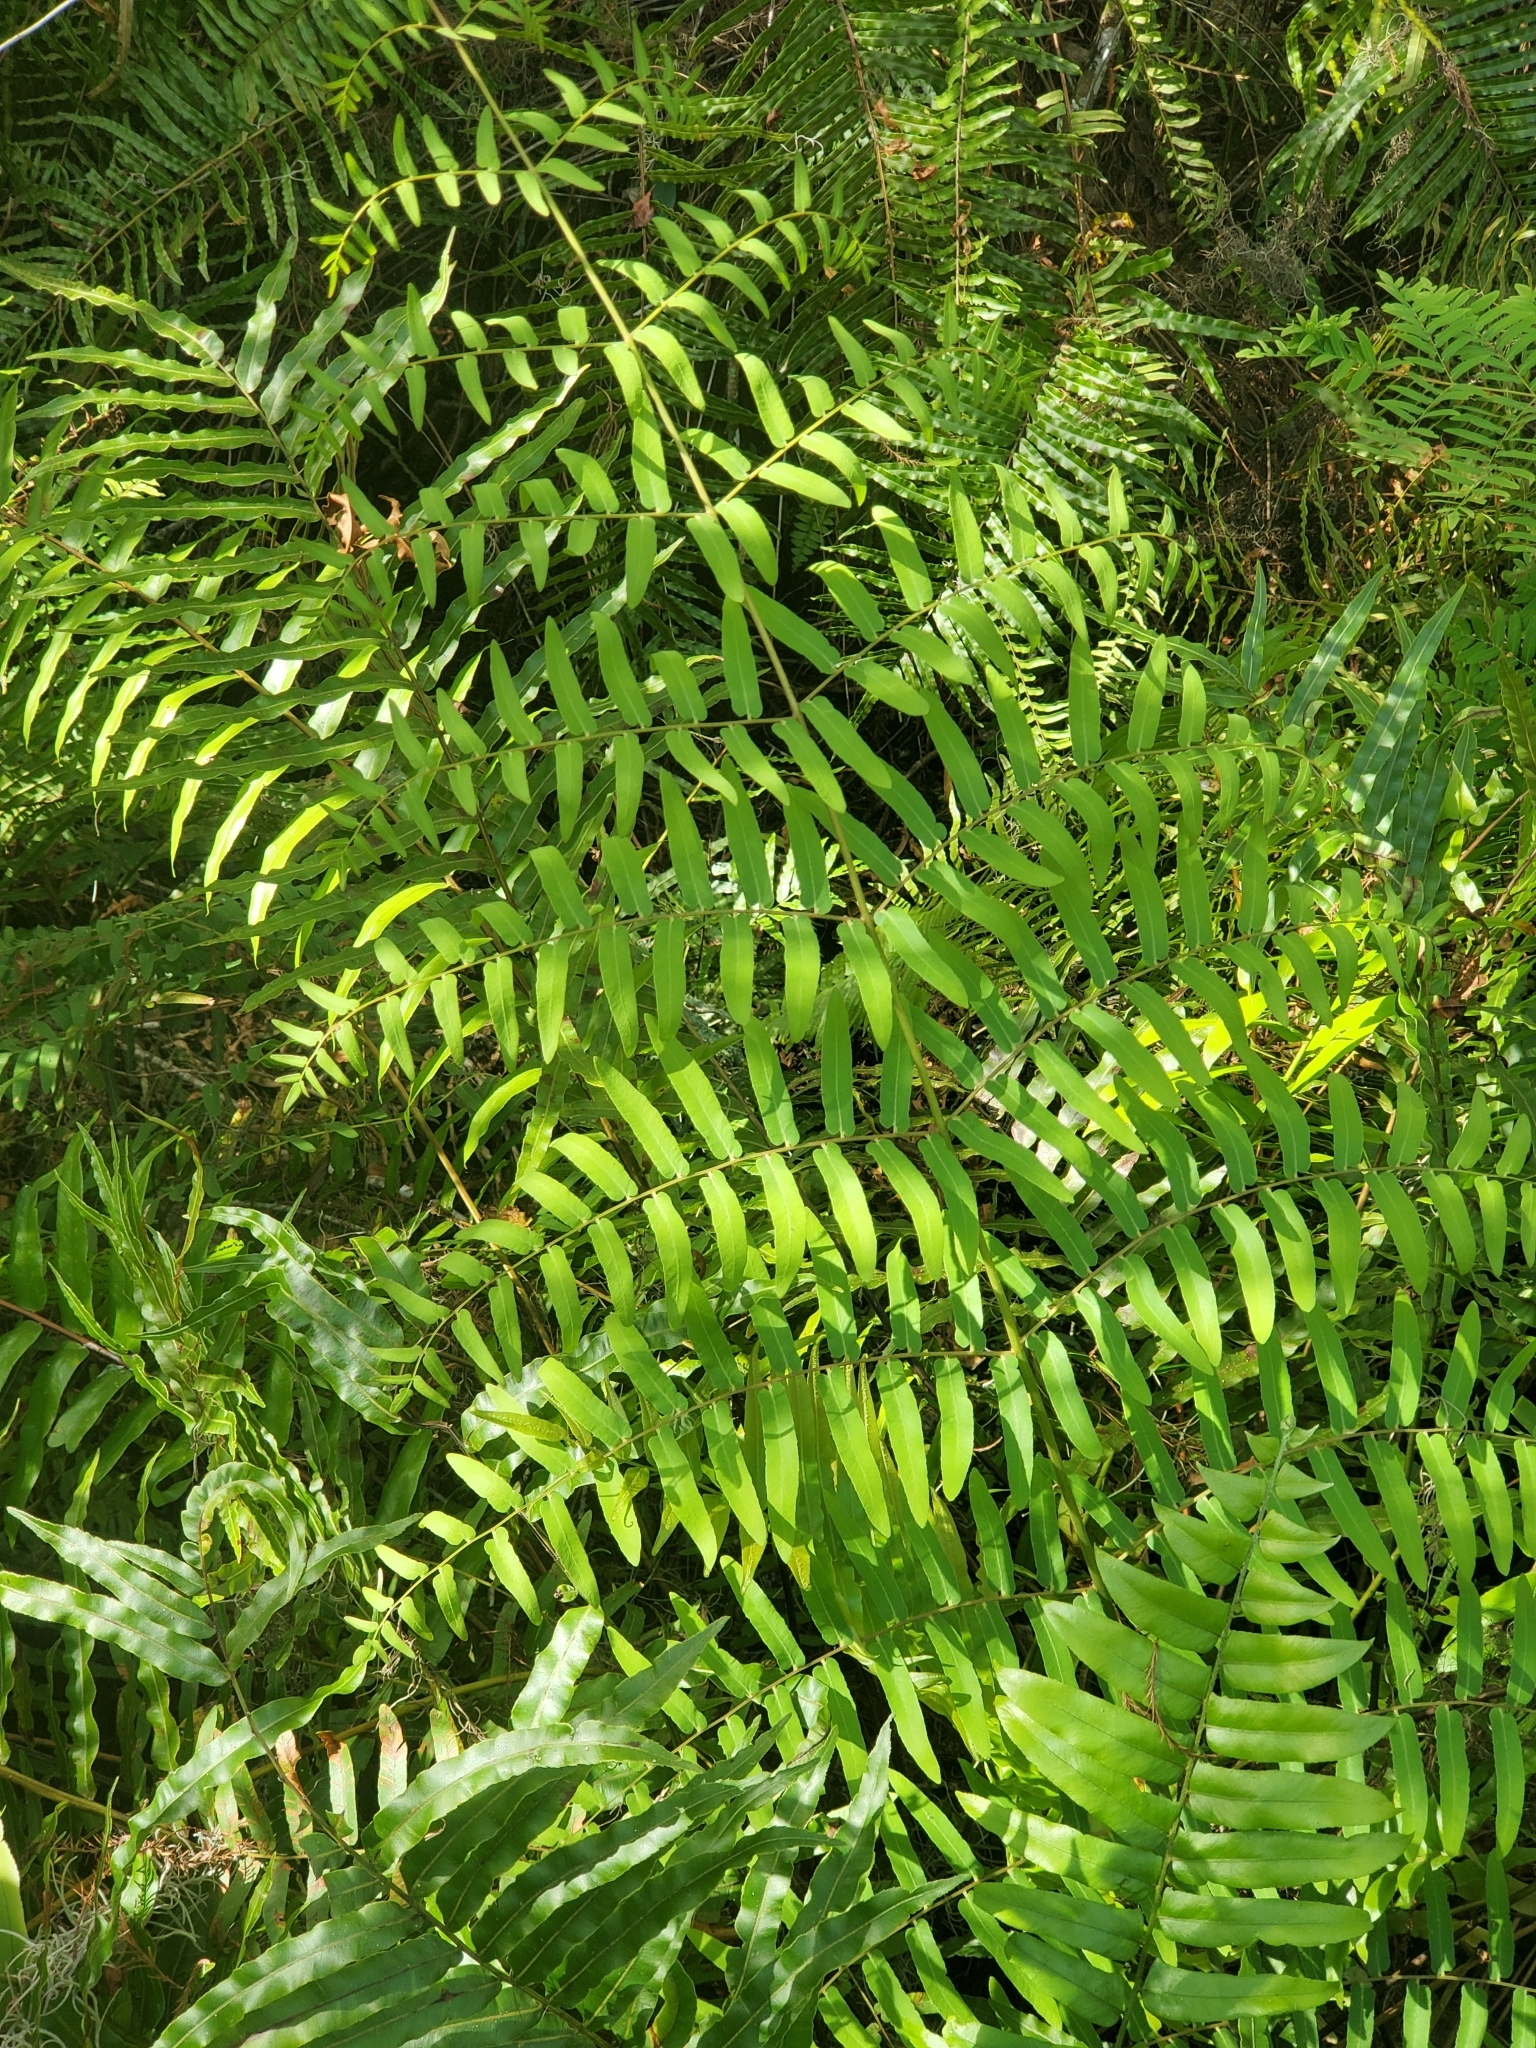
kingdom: Plantae
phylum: Tracheophyta
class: Polypodiopsida
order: Osmundales
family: Osmundaceae
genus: Osmunda
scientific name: Osmunda spectabilis
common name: American royal fern
